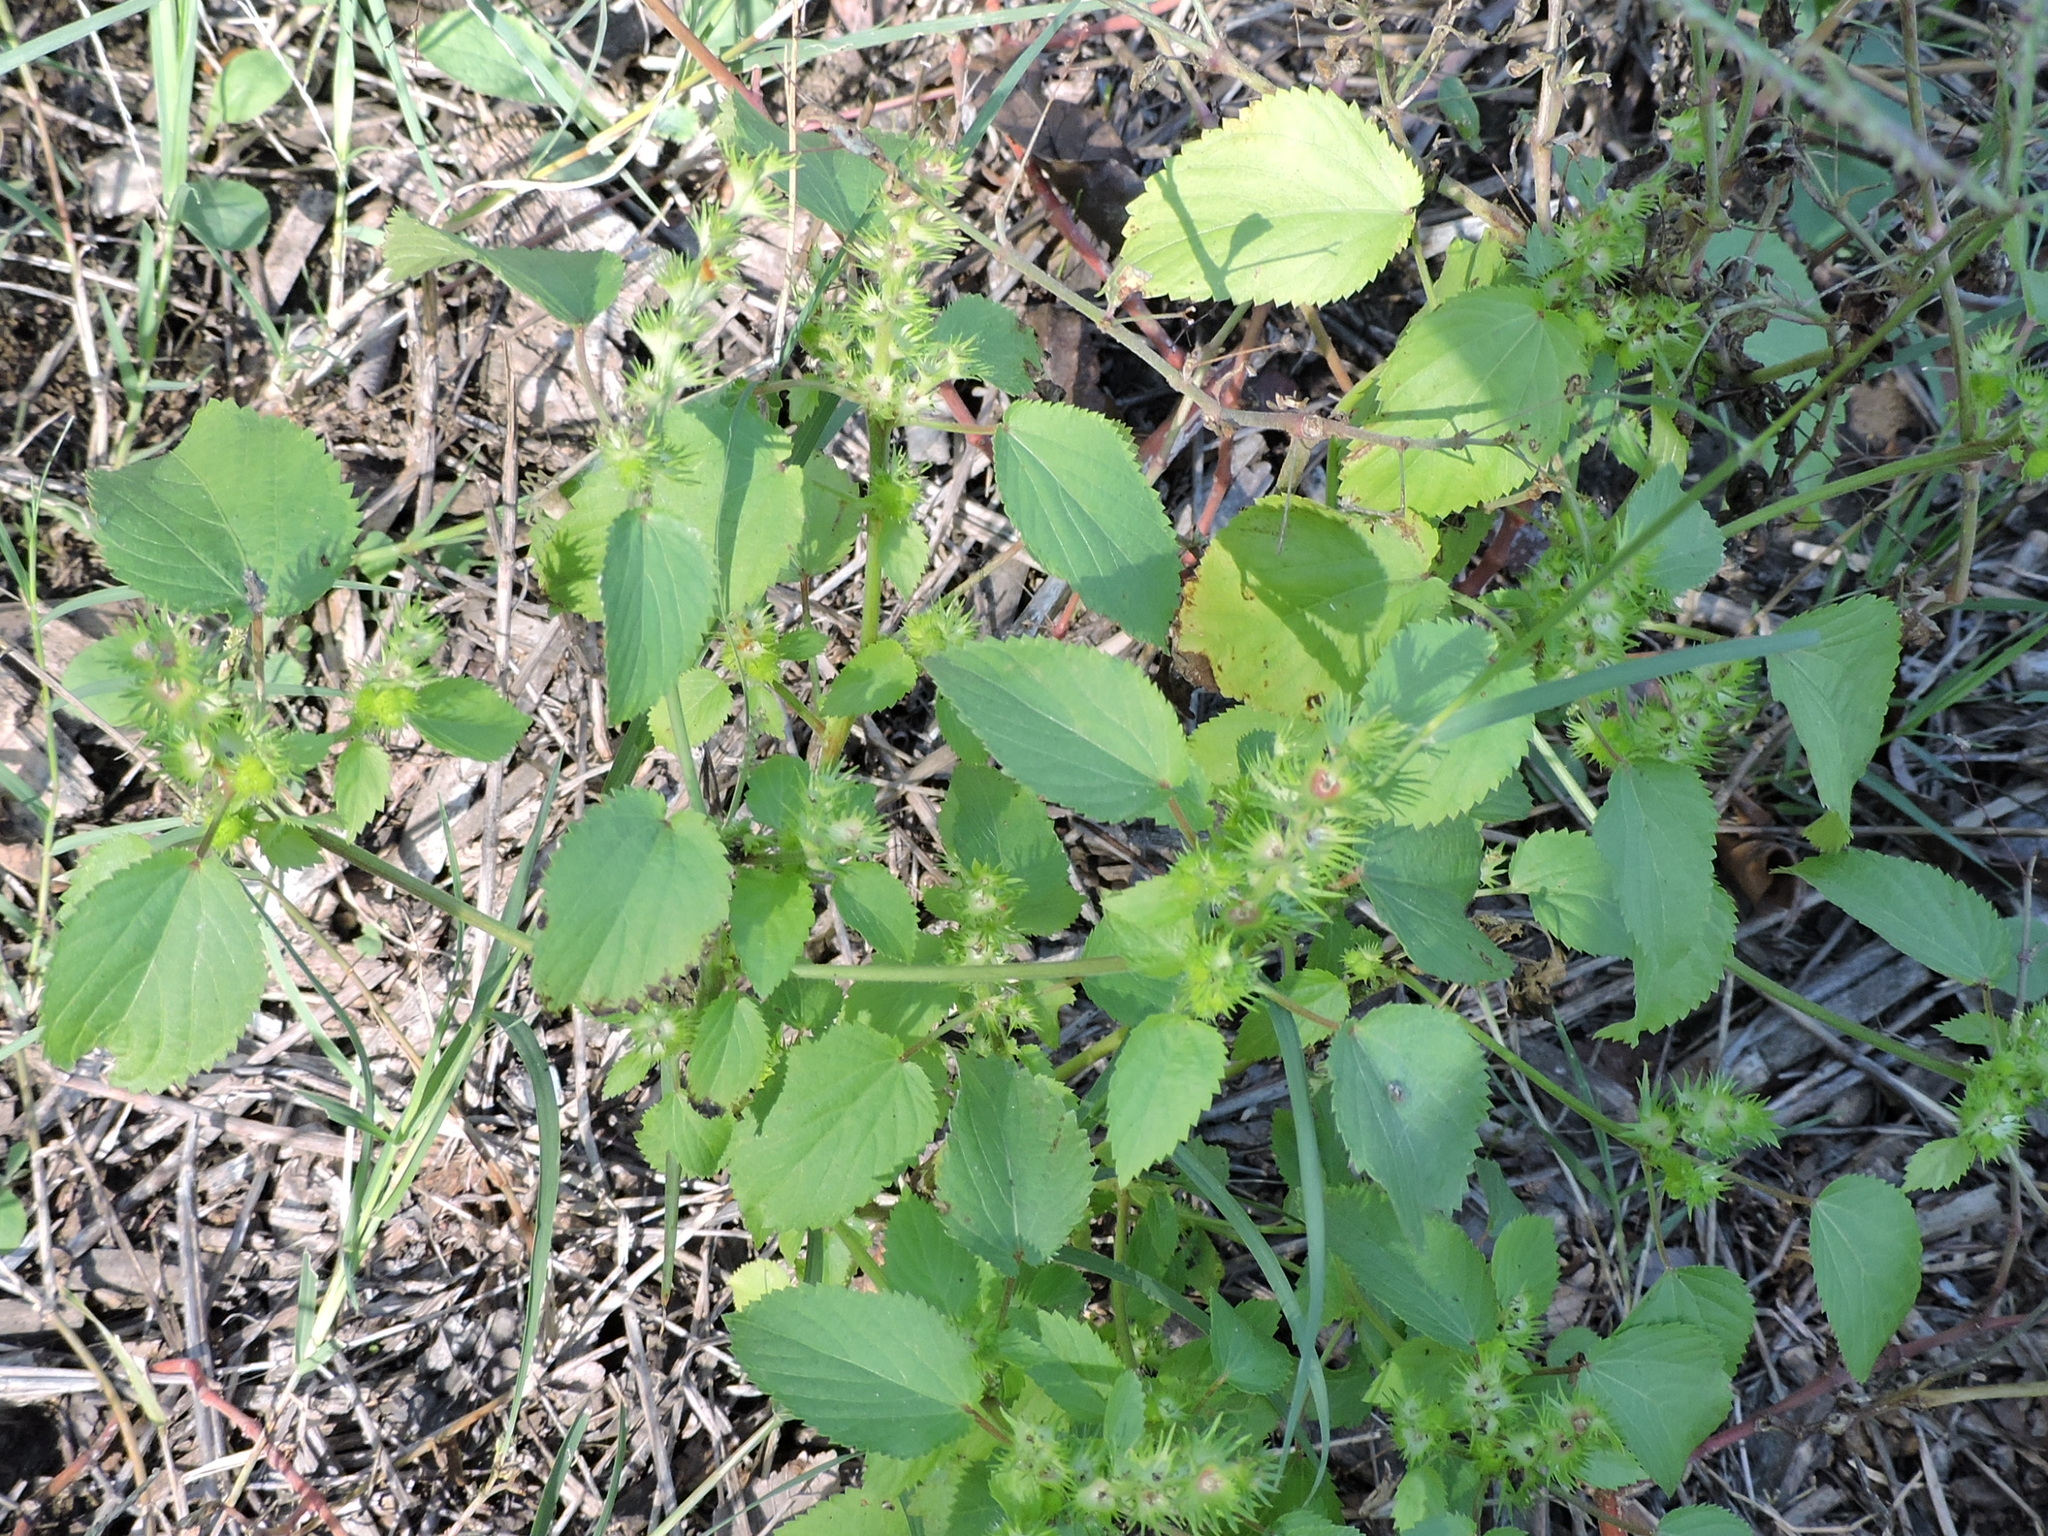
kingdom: Plantae
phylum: Tracheophyta
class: Magnoliopsida
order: Malpighiales
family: Euphorbiaceae
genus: Acalypha
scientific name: Acalypha ostryifolia
